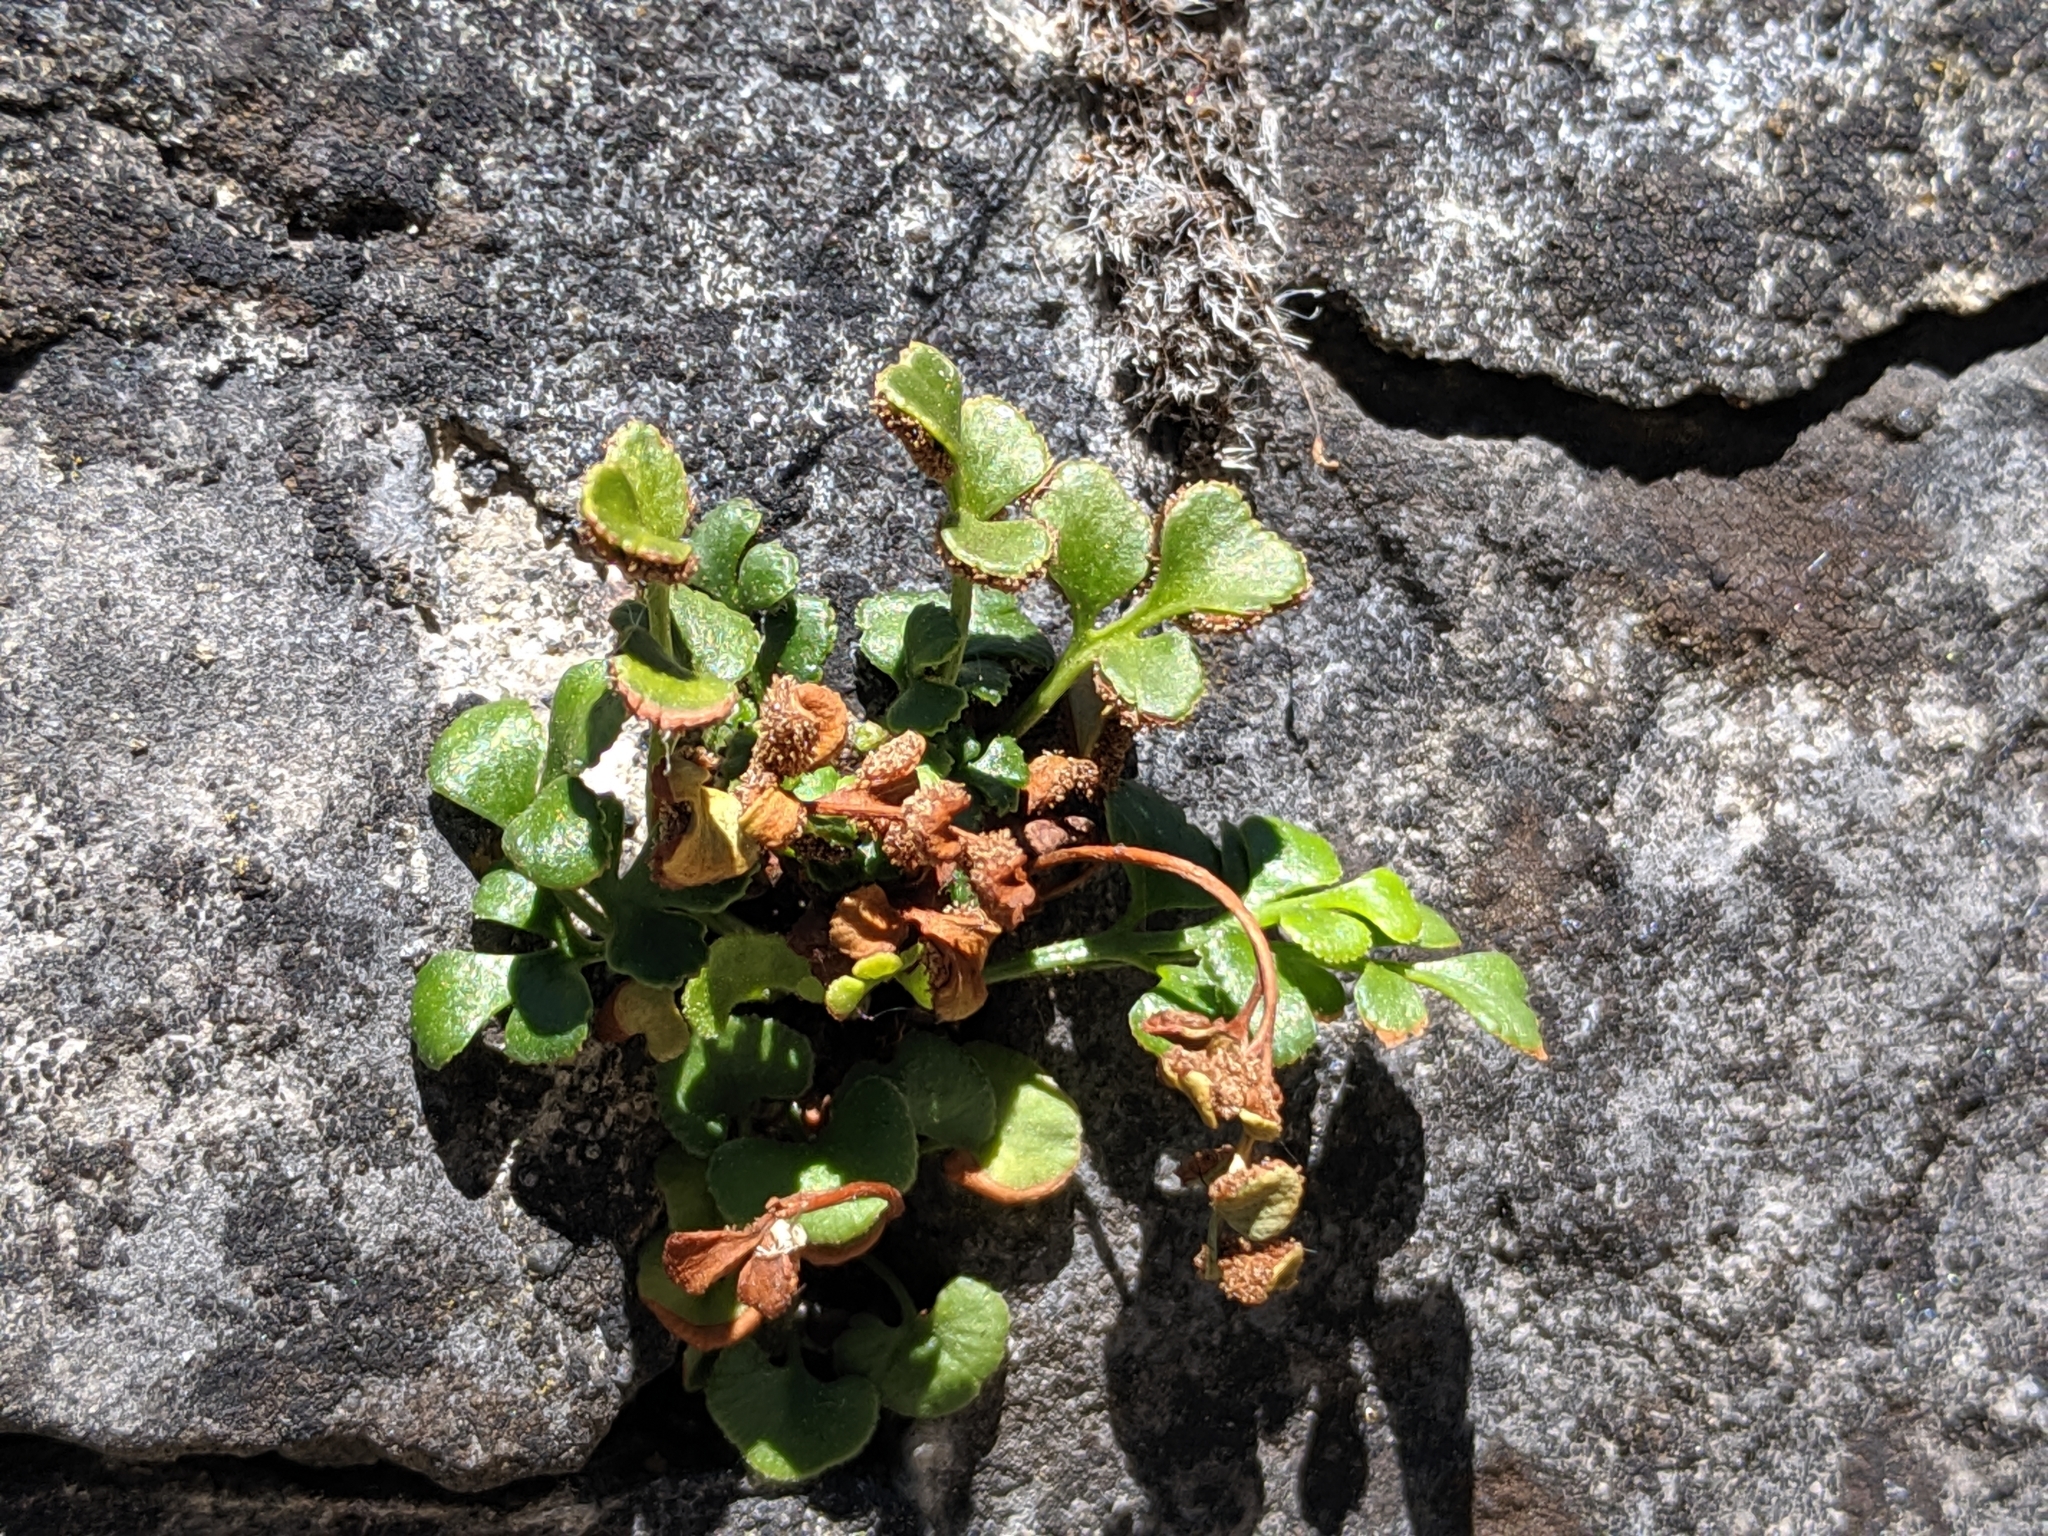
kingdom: Plantae
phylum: Tracheophyta
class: Polypodiopsida
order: Polypodiales
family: Aspleniaceae
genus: Asplenium
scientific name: Asplenium ruta-muraria
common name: Wall-rue
